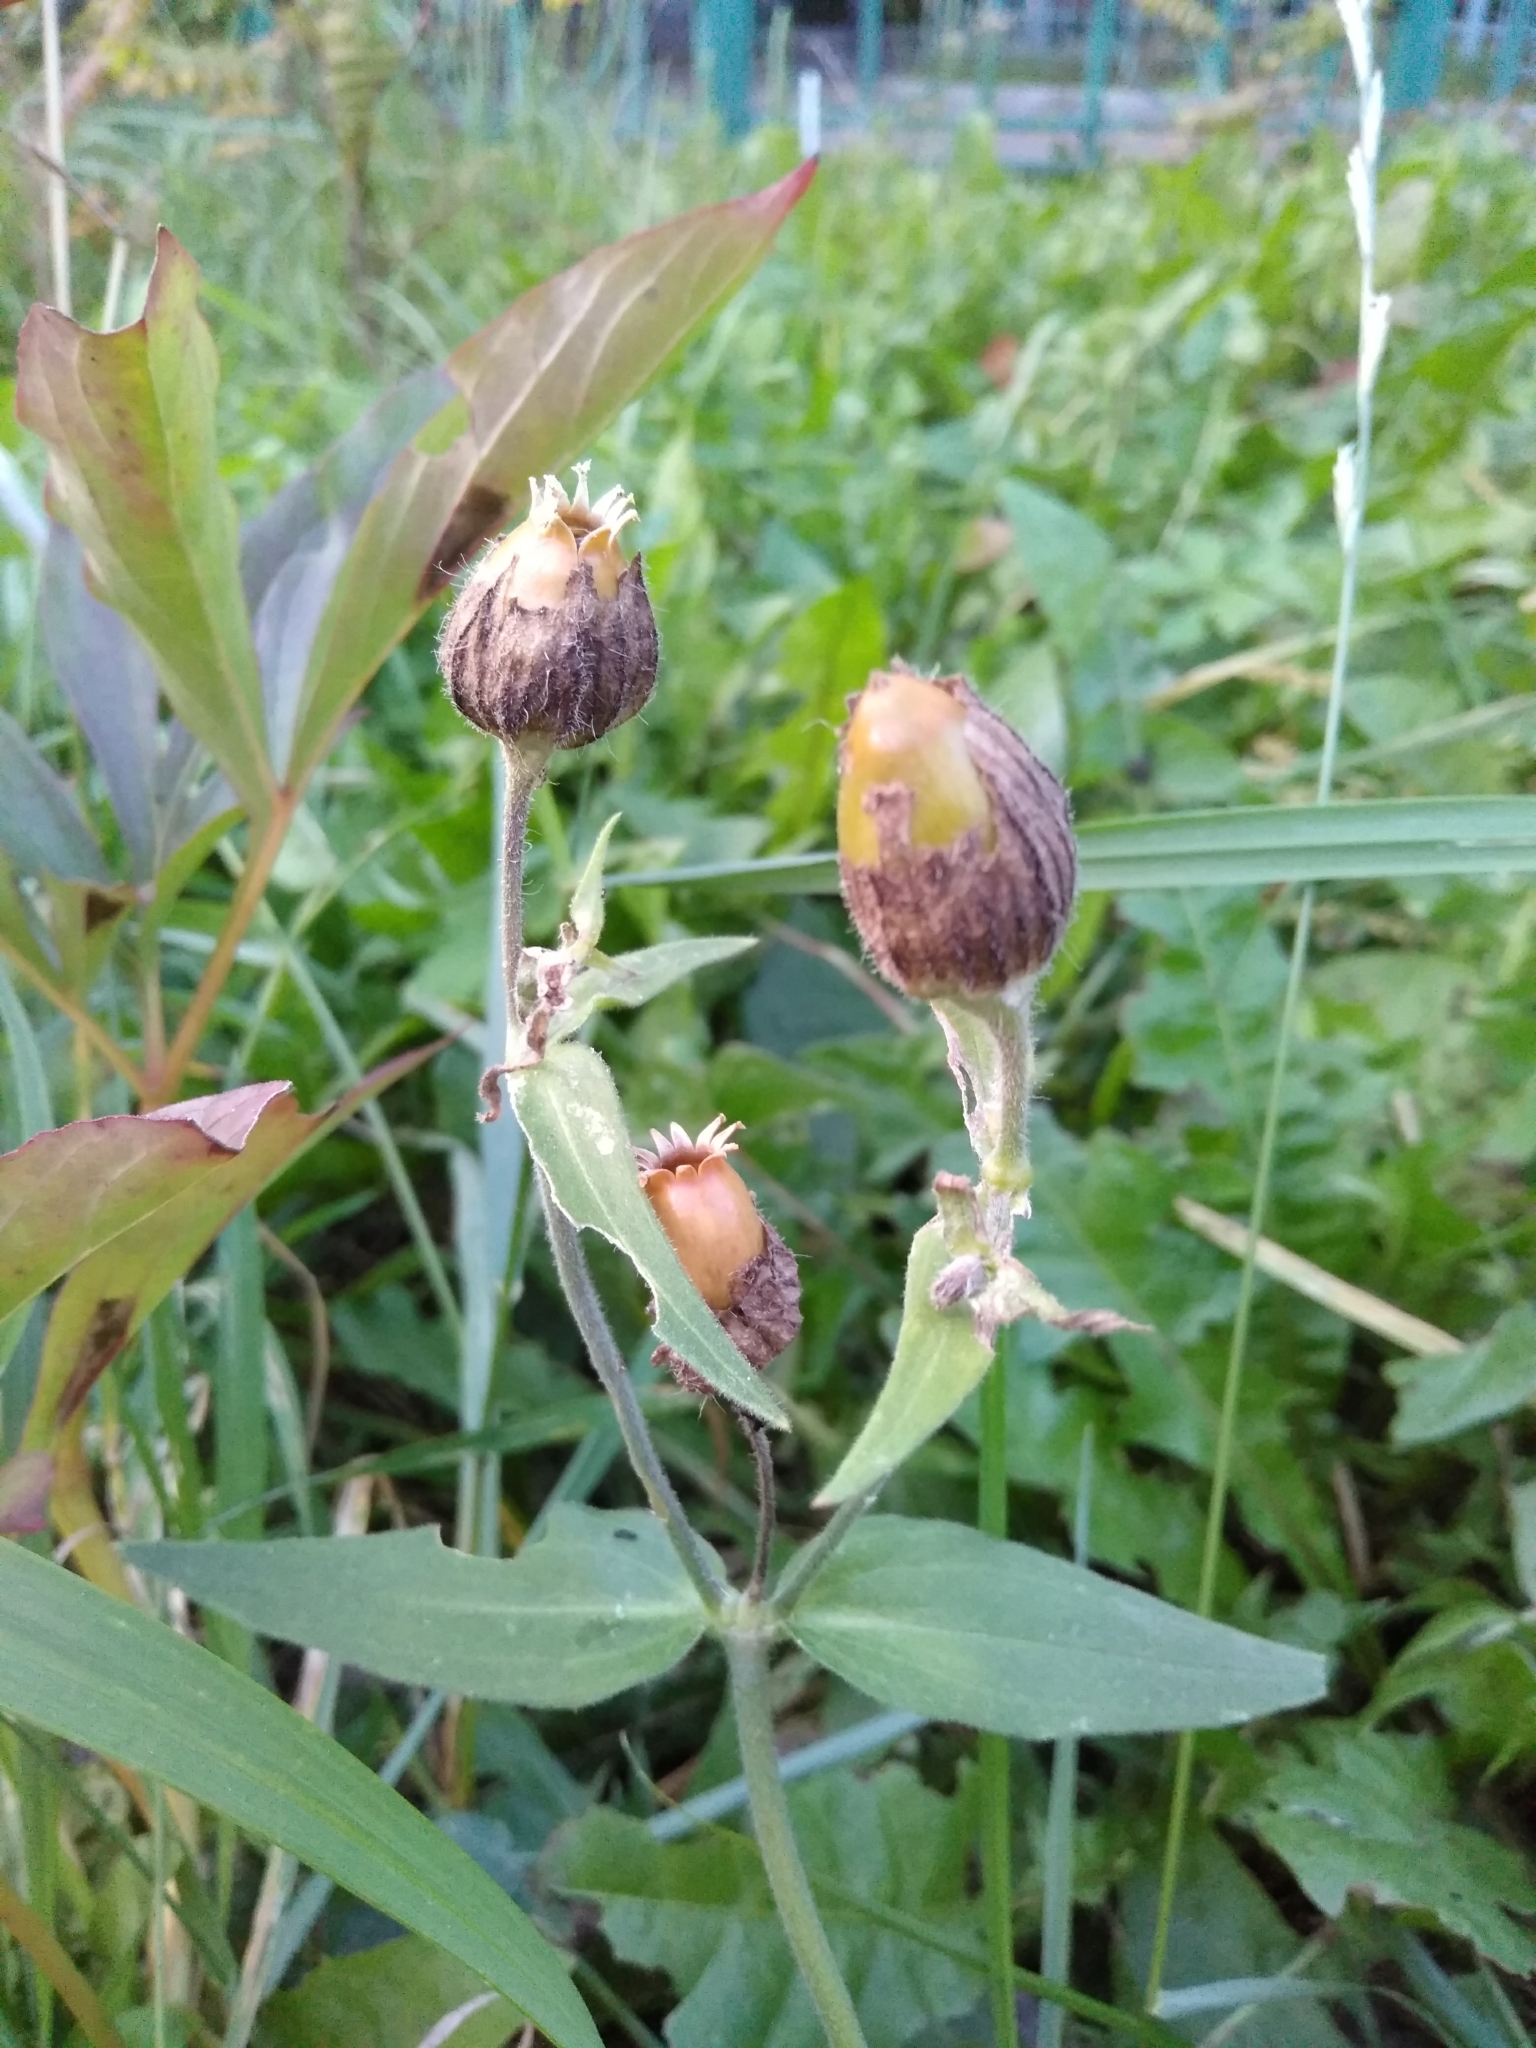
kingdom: Plantae
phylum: Tracheophyta
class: Magnoliopsida
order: Caryophyllales
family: Caryophyllaceae
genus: Silene
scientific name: Silene latifolia
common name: White campion
